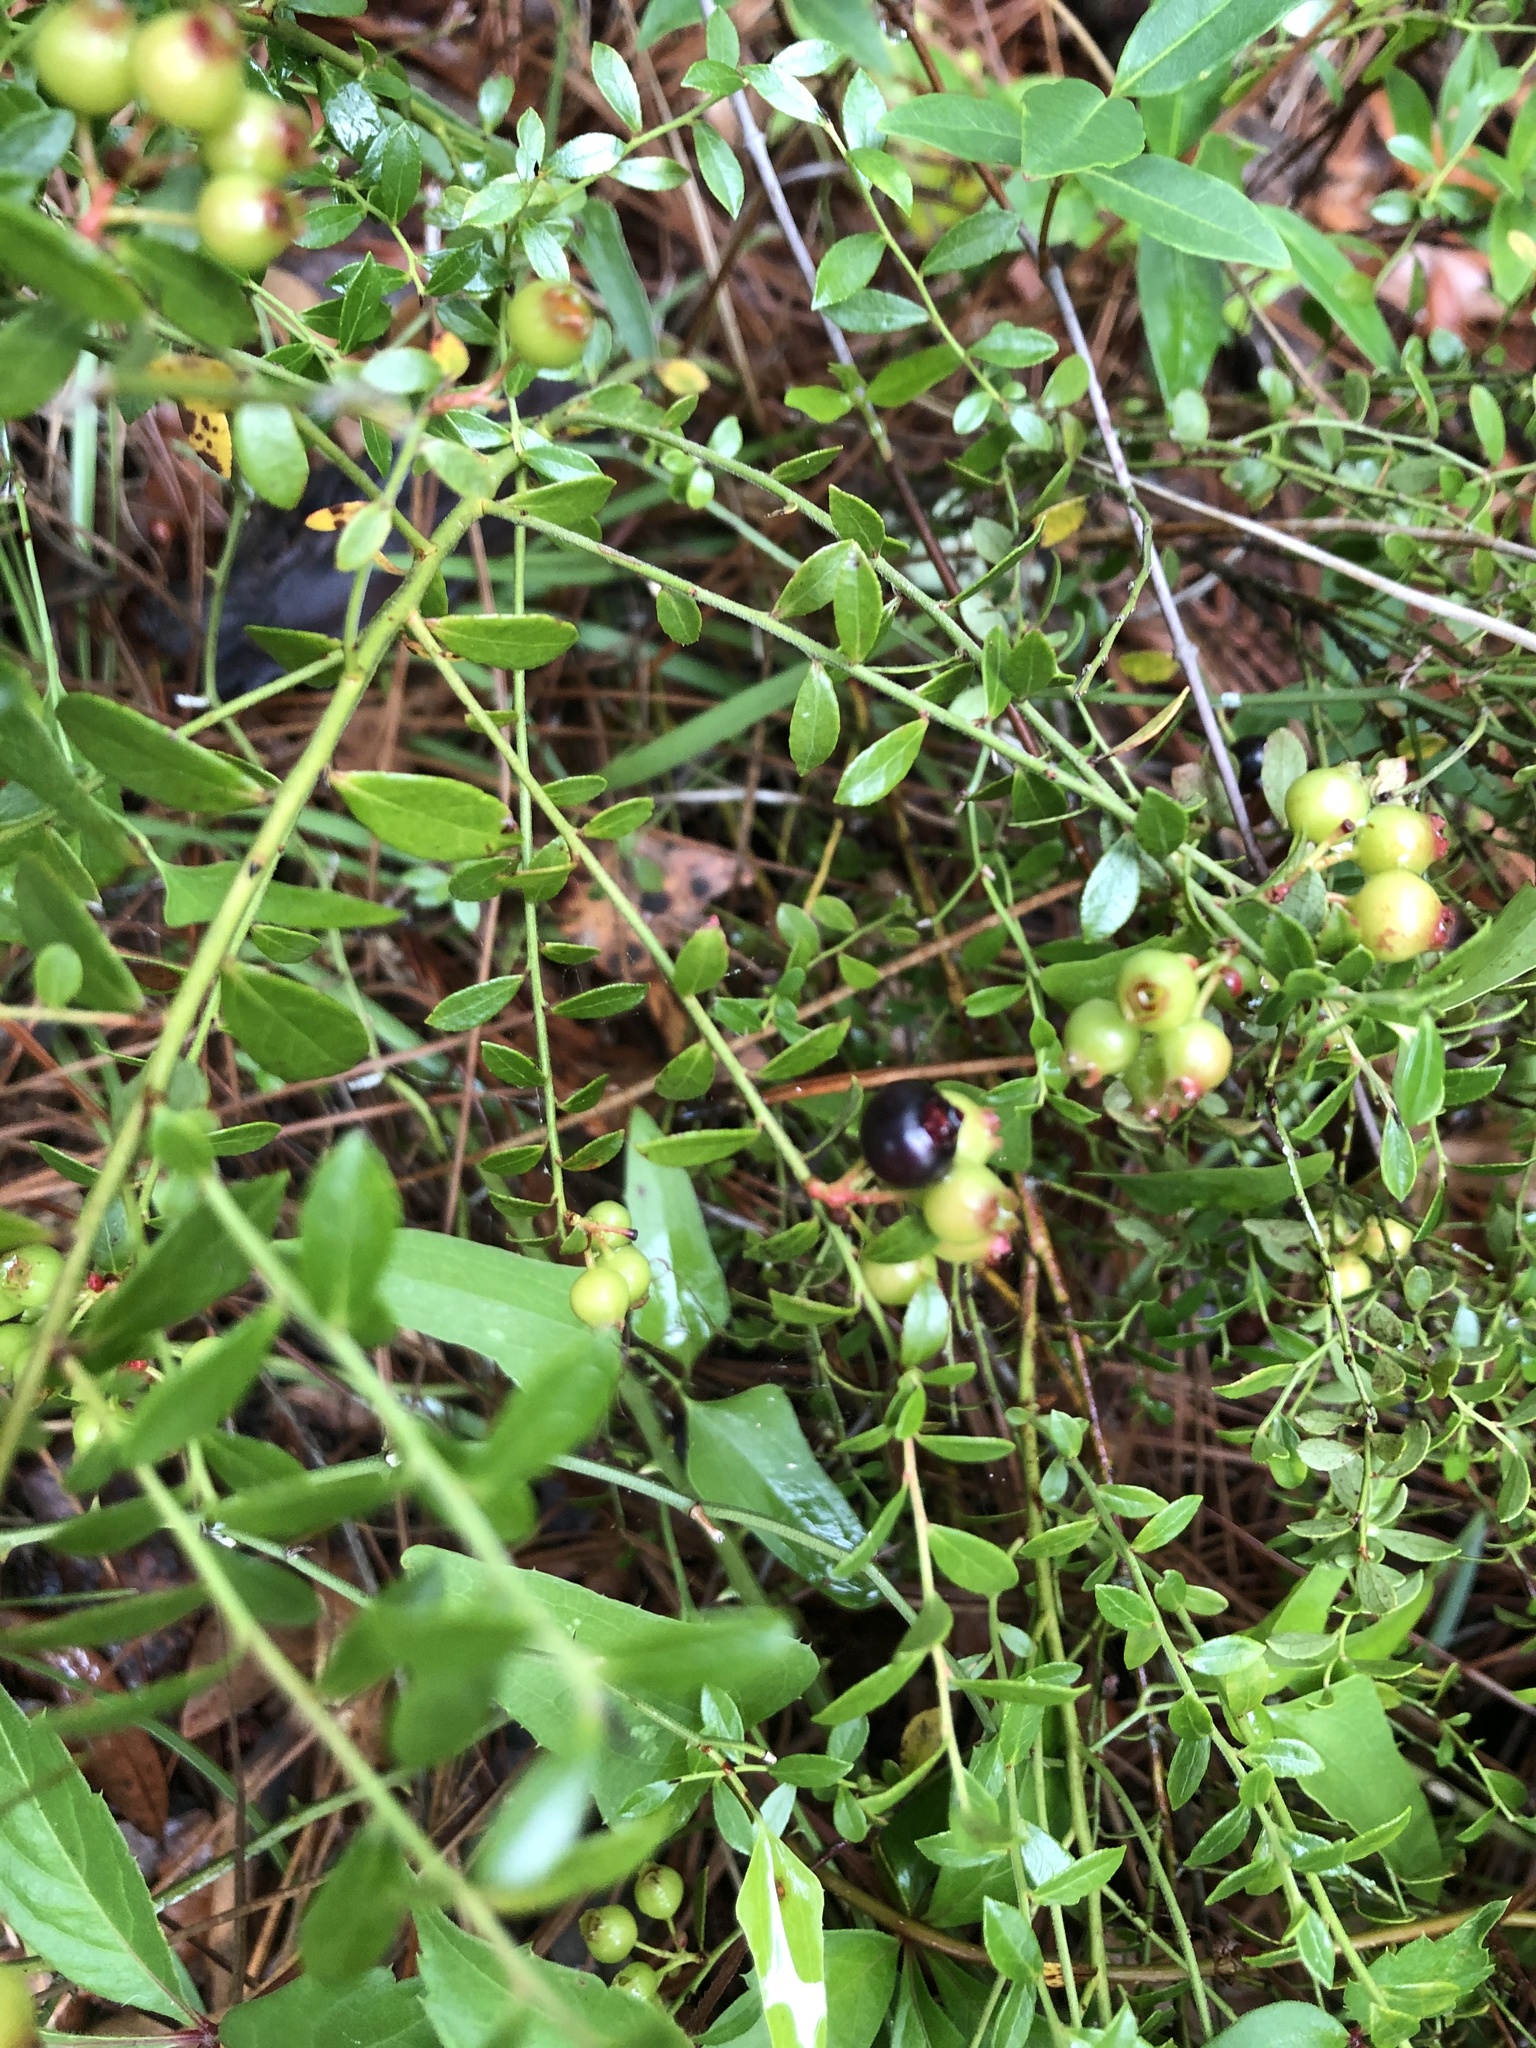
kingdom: Plantae
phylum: Tracheophyta
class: Magnoliopsida
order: Ericales
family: Ericaceae
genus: Vaccinium
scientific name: Vaccinium myrsinites
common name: Evergreen blueberry
